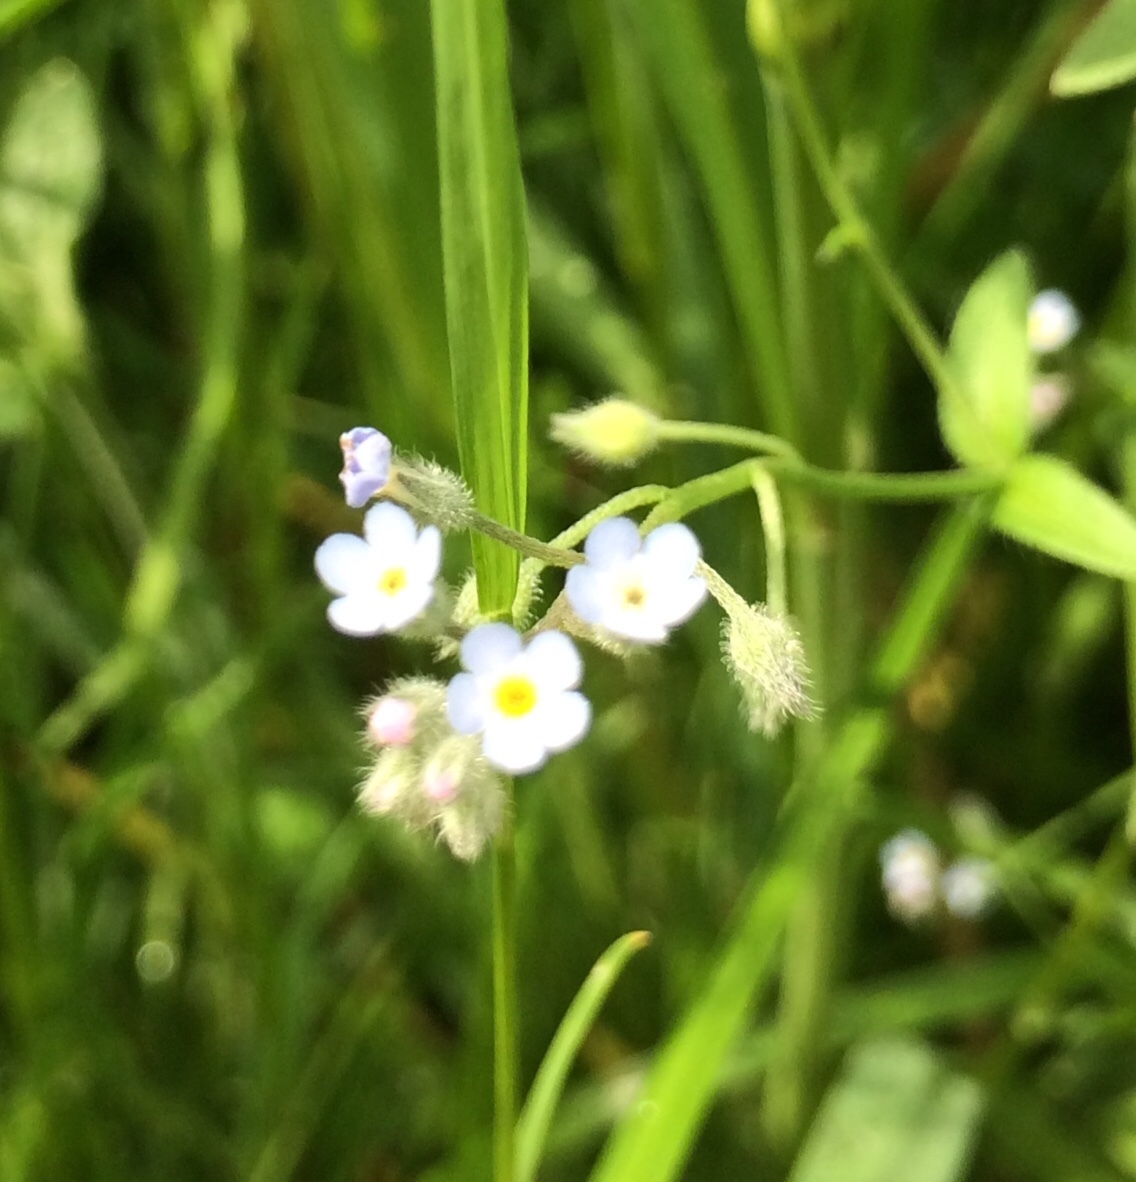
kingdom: Plantae
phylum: Tracheophyta
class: Magnoliopsida
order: Boraginales
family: Boraginaceae
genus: Myosotis
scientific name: Myosotis arvensis
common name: Field forget-me-not
